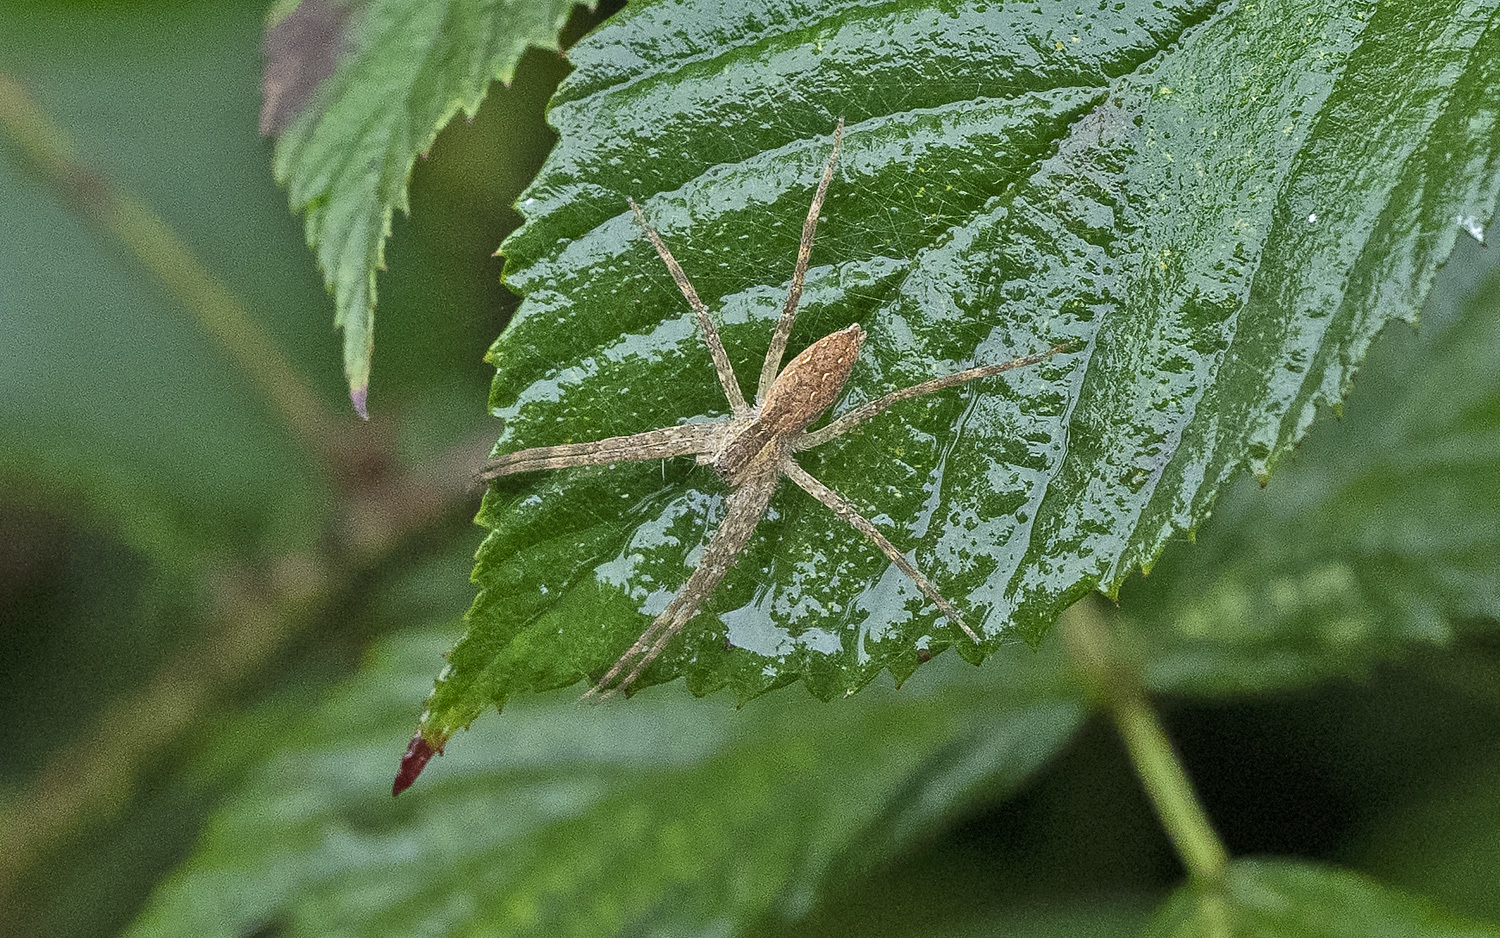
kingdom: Animalia
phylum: Arthropoda
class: Arachnida
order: Araneae
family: Pisauridae
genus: Pisaurina
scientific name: Pisaurina mira
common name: American nursery web spider
